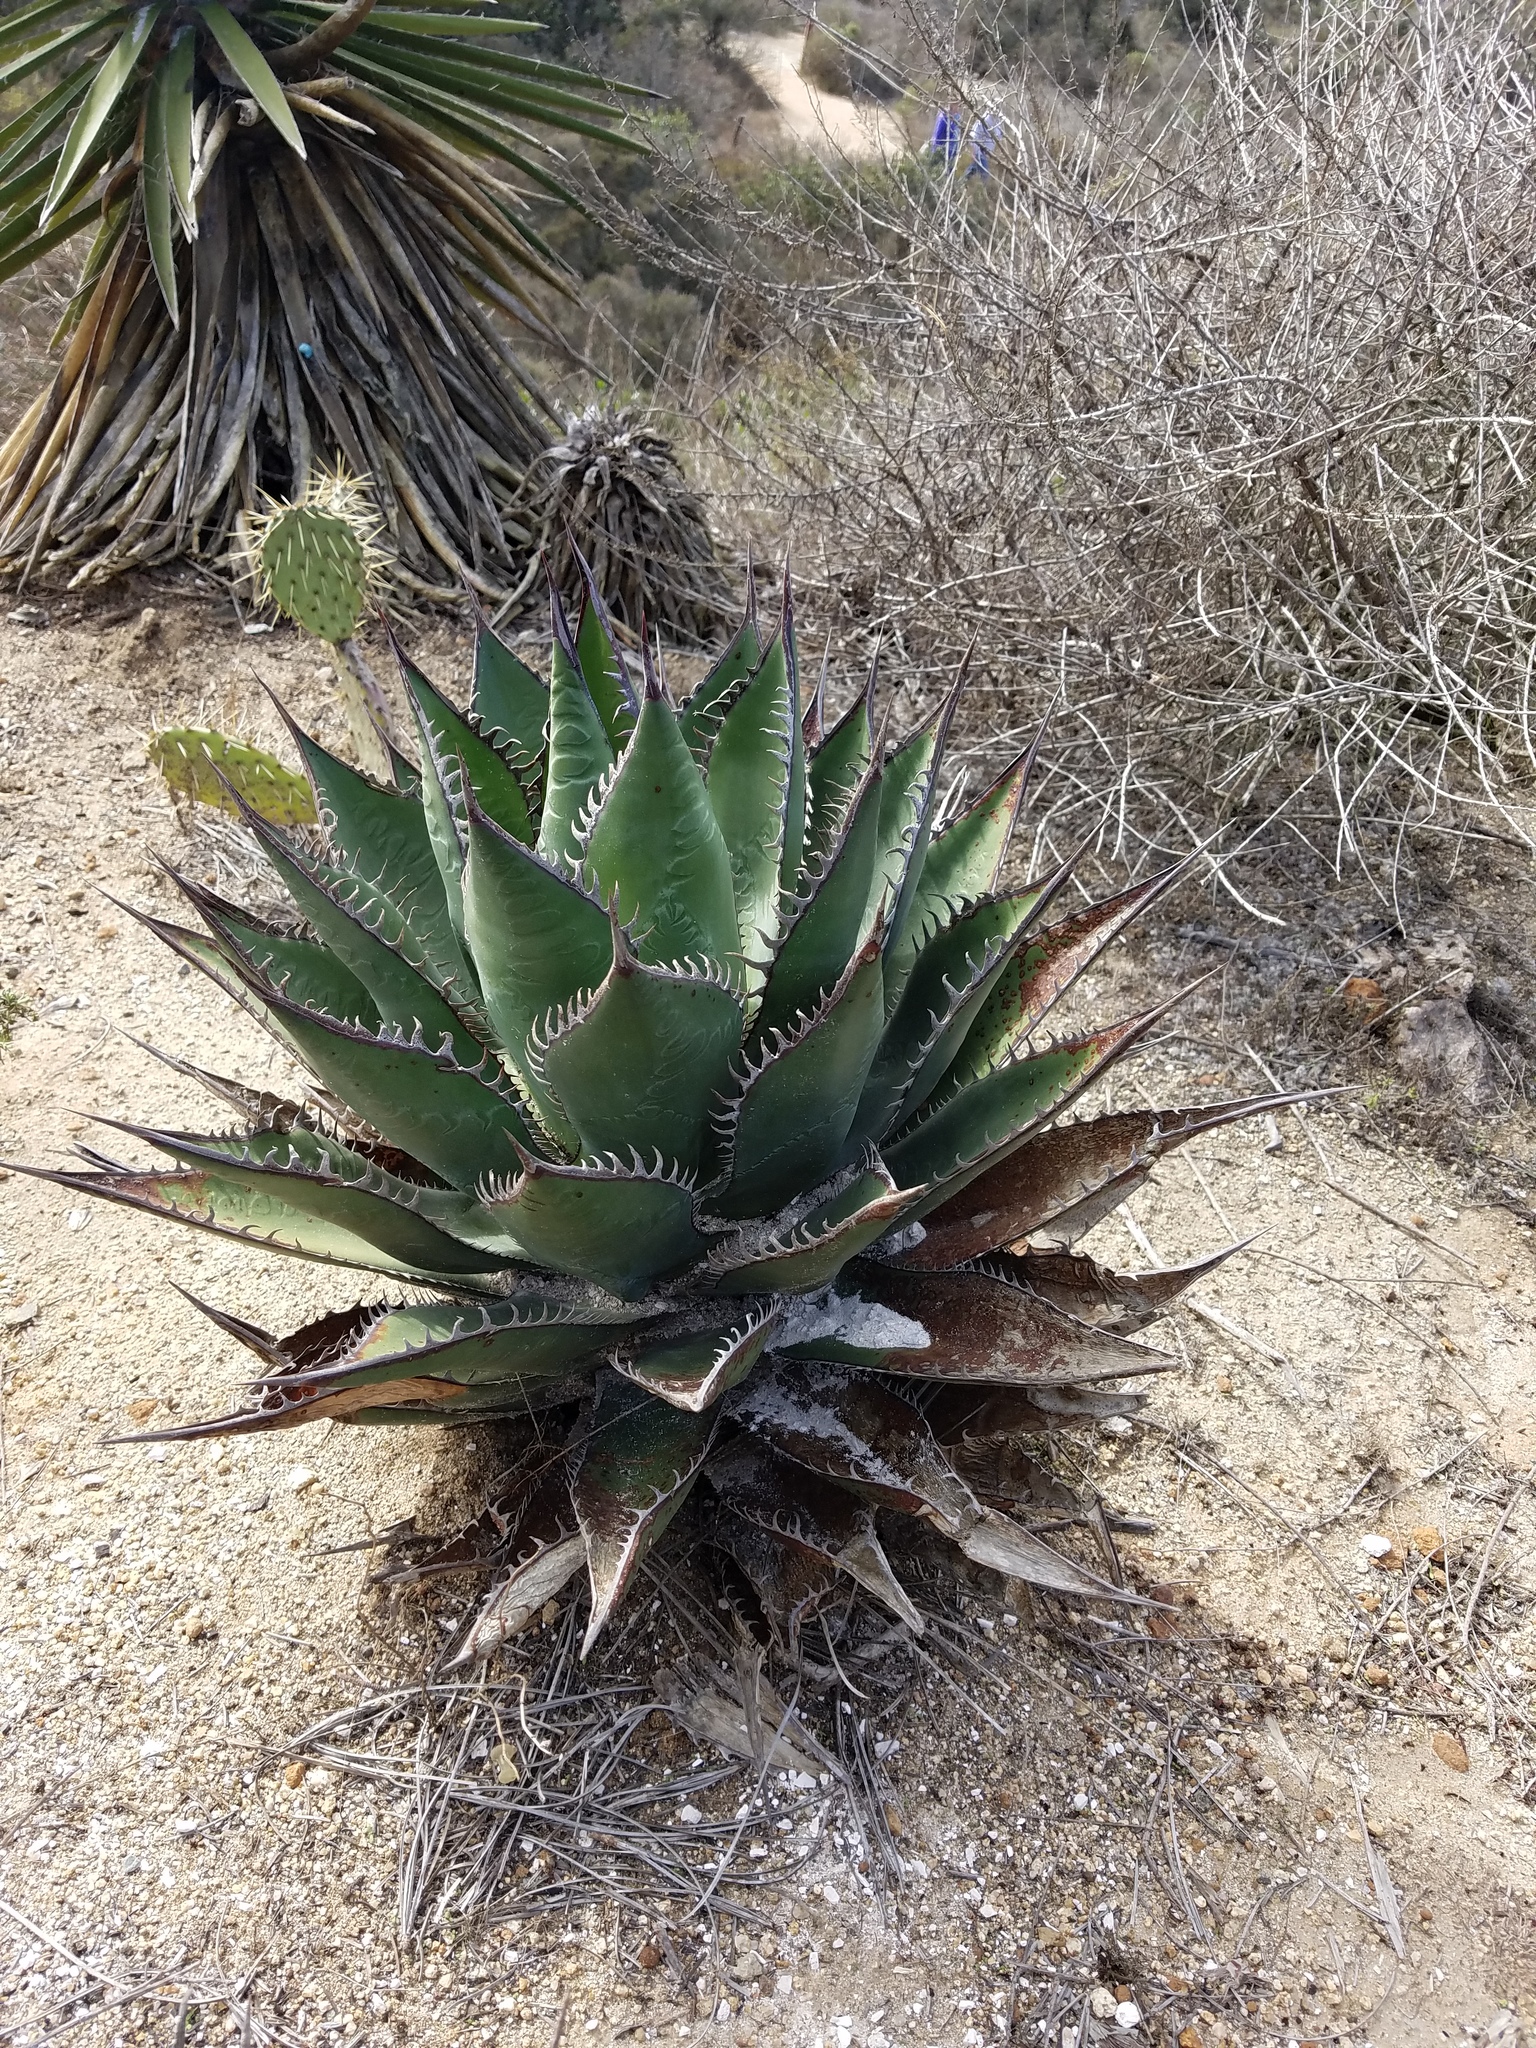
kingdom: Plantae
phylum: Tracheophyta
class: Liliopsida
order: Asparagales
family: Asparagaceae
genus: Agave
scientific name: Agave shawii
